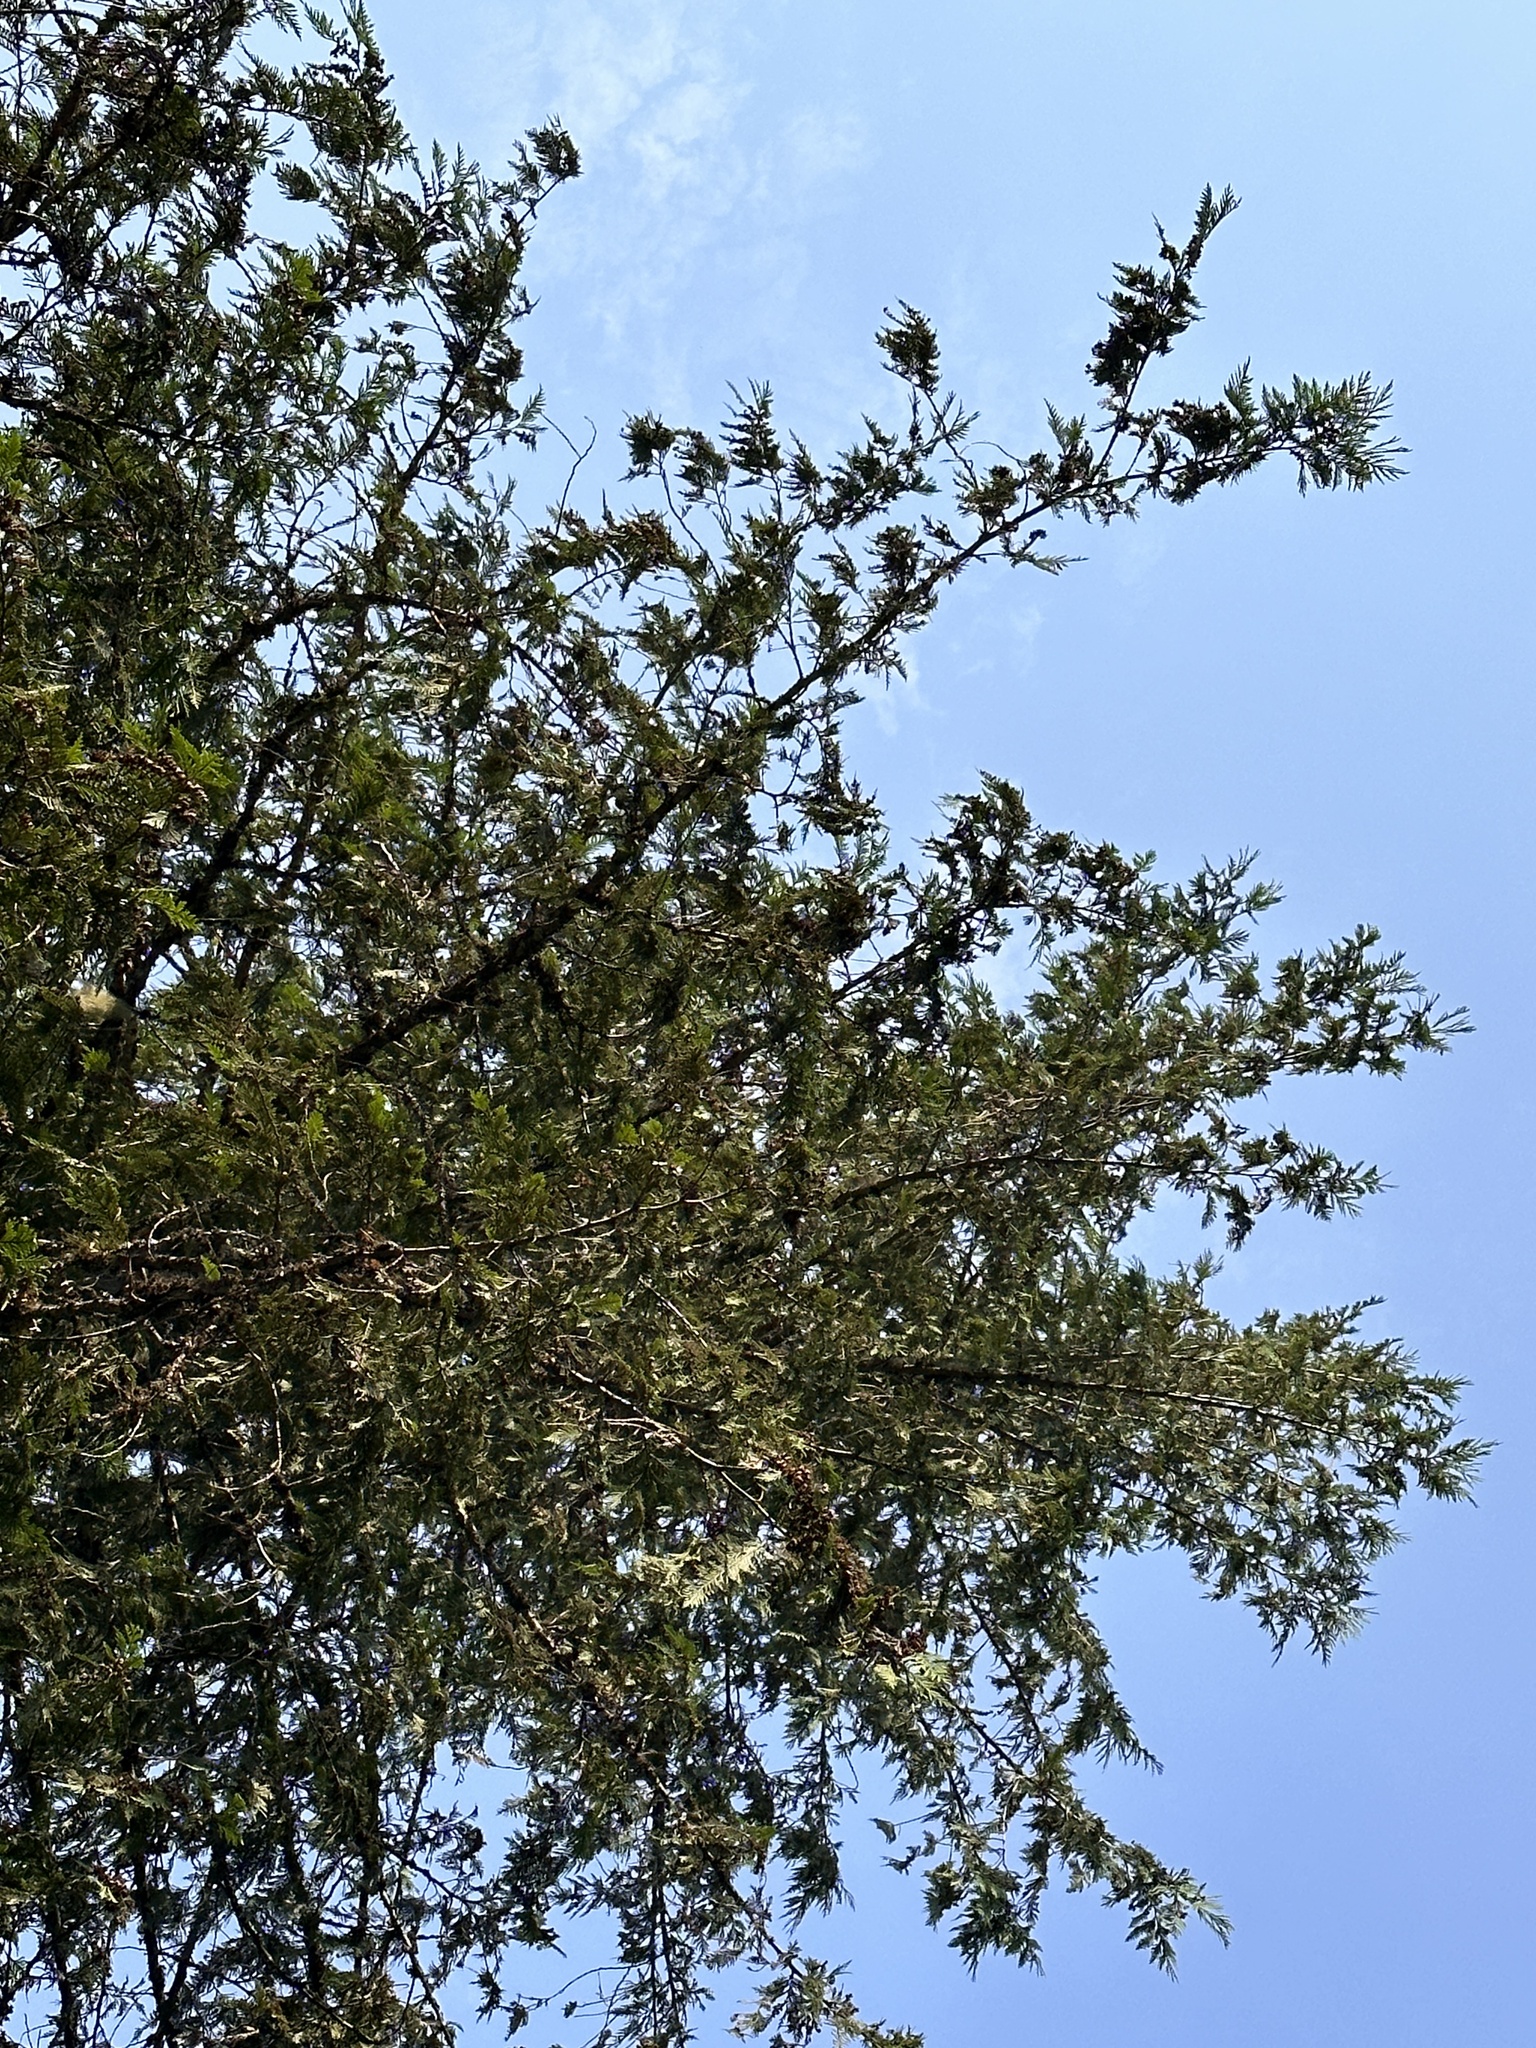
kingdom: Plantae
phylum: Tracheophyta
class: Pinopsida
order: Pinales
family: Cupressaceae
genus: Thuja
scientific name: Thuja plicata
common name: Western red-cedar
